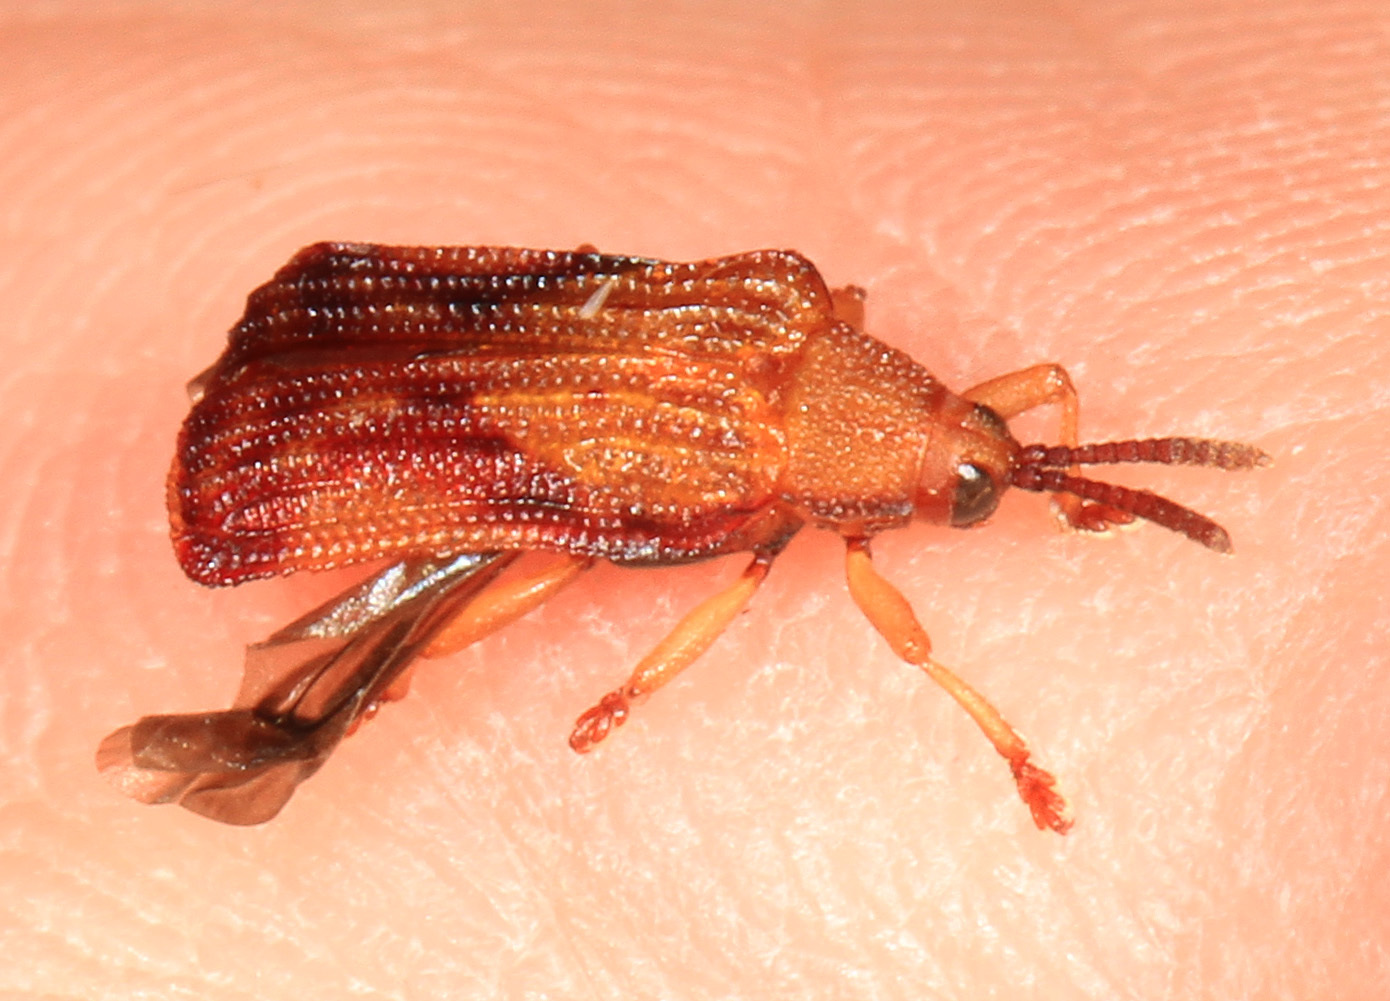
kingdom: Animalia
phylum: Arthropoda
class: Insecta
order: Coleoptera
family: Chrysomelidae
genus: Baliosus
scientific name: Baliosus nervosus
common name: Basswood leaf miner
